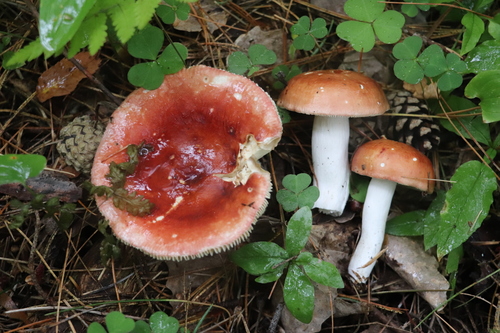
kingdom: Fungi
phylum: Basidiomycota
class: Agaricomycetes
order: Russulales
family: Russulaceae
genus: Russula
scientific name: Russula sanguinea
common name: Bloody brittlegill
